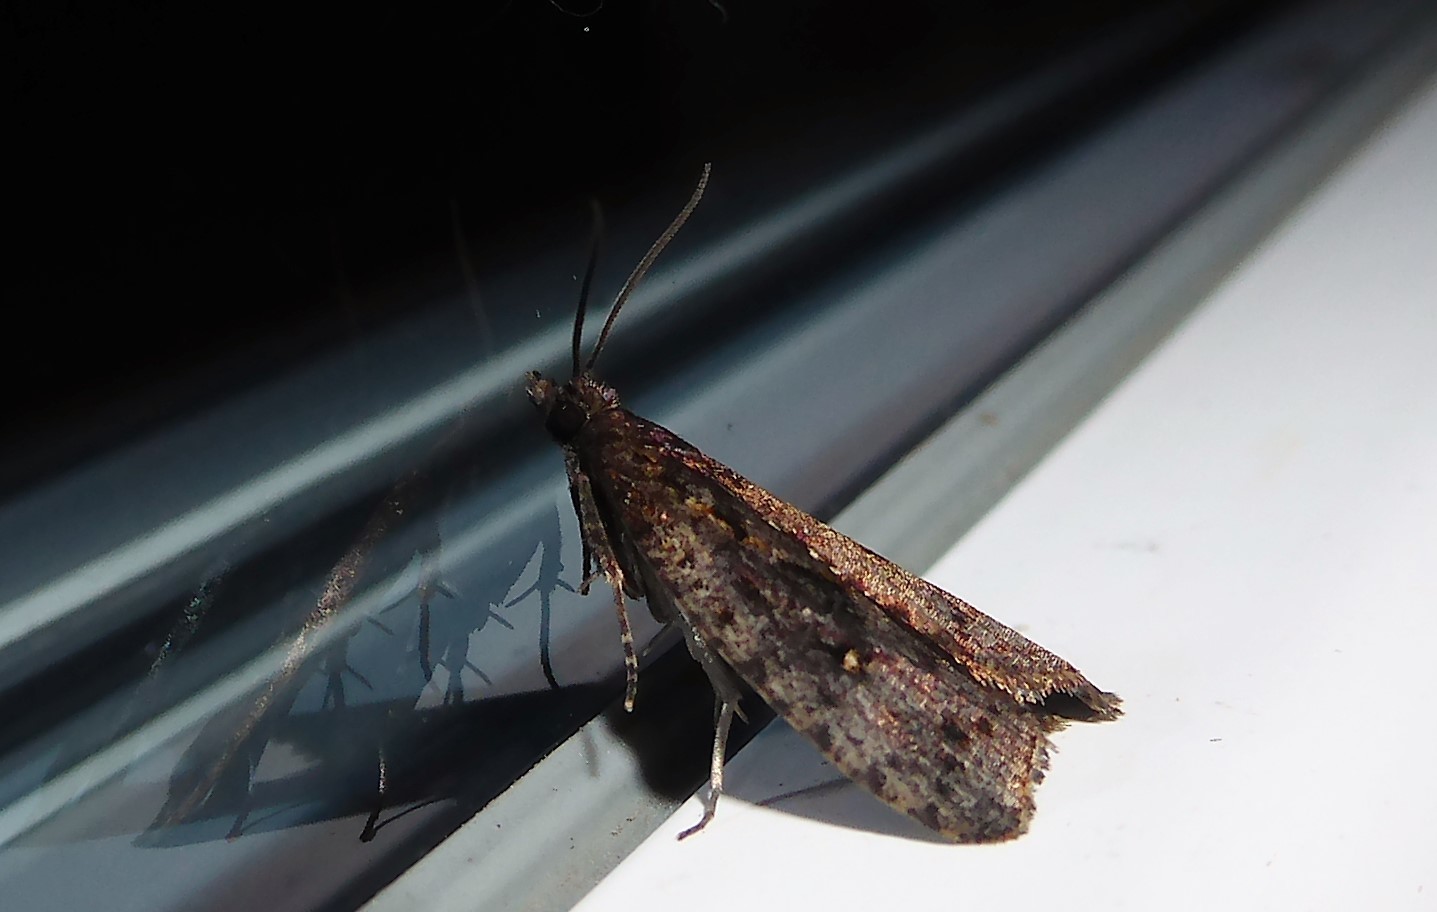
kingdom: Animalia
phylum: Arthropoda
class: Insecta
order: Lepidoptera
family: Tortricidae
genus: Cryptaspasma
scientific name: Cryptaspasma querula
